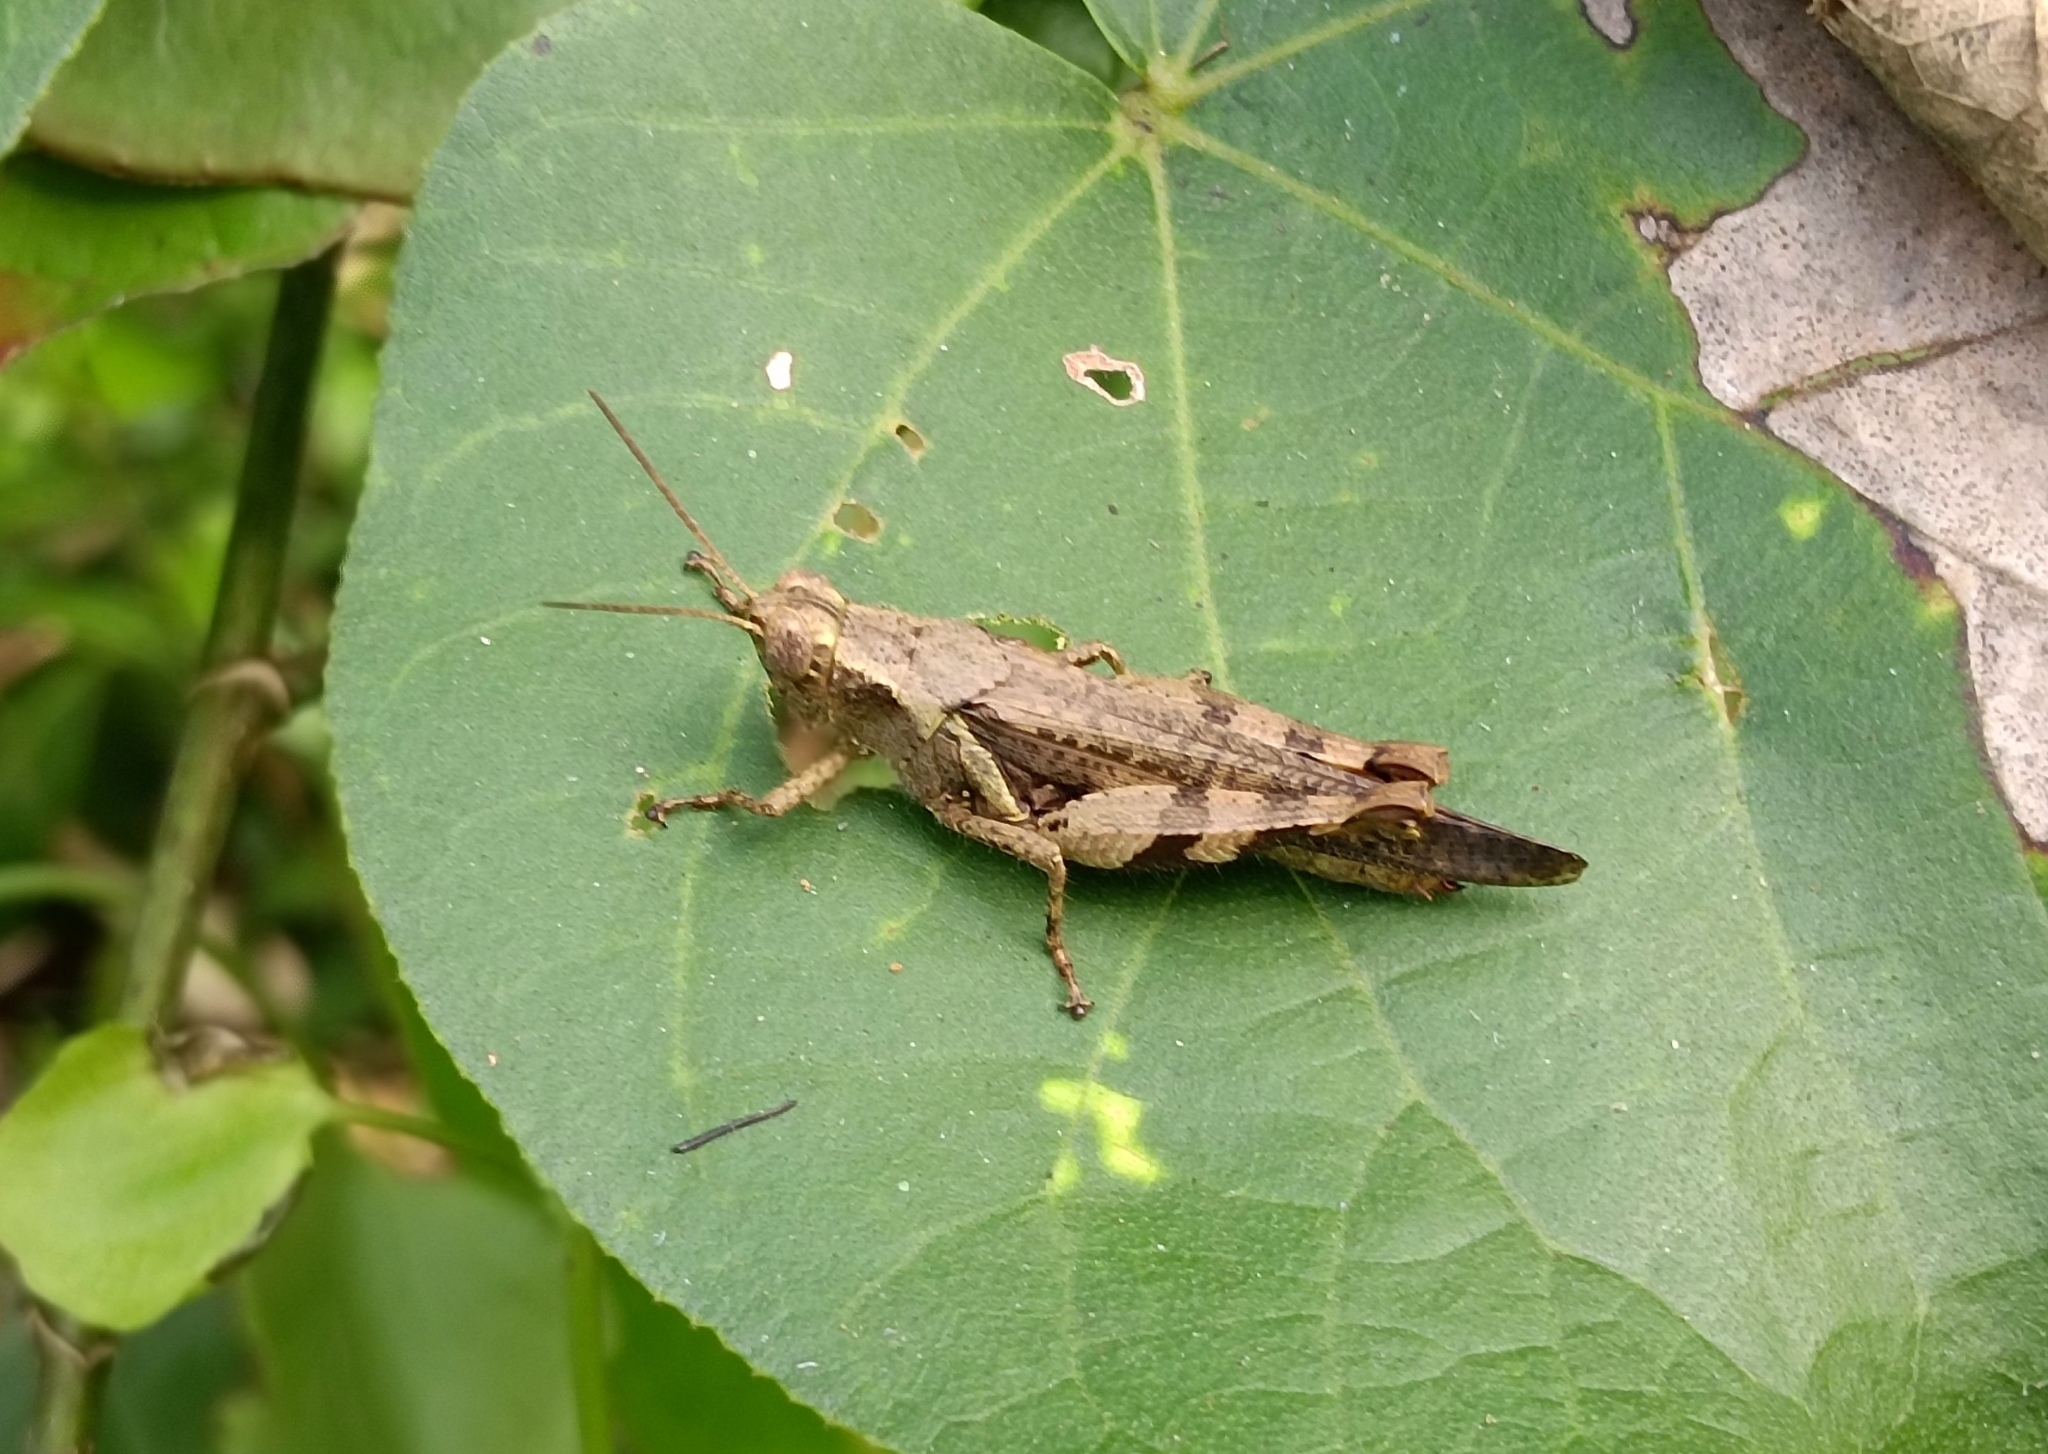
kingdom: Animalia
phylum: Arthropoda
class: Insecta
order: Orthoptera
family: Acrididae
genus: Xenocatantops
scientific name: Xenocatantops humile
